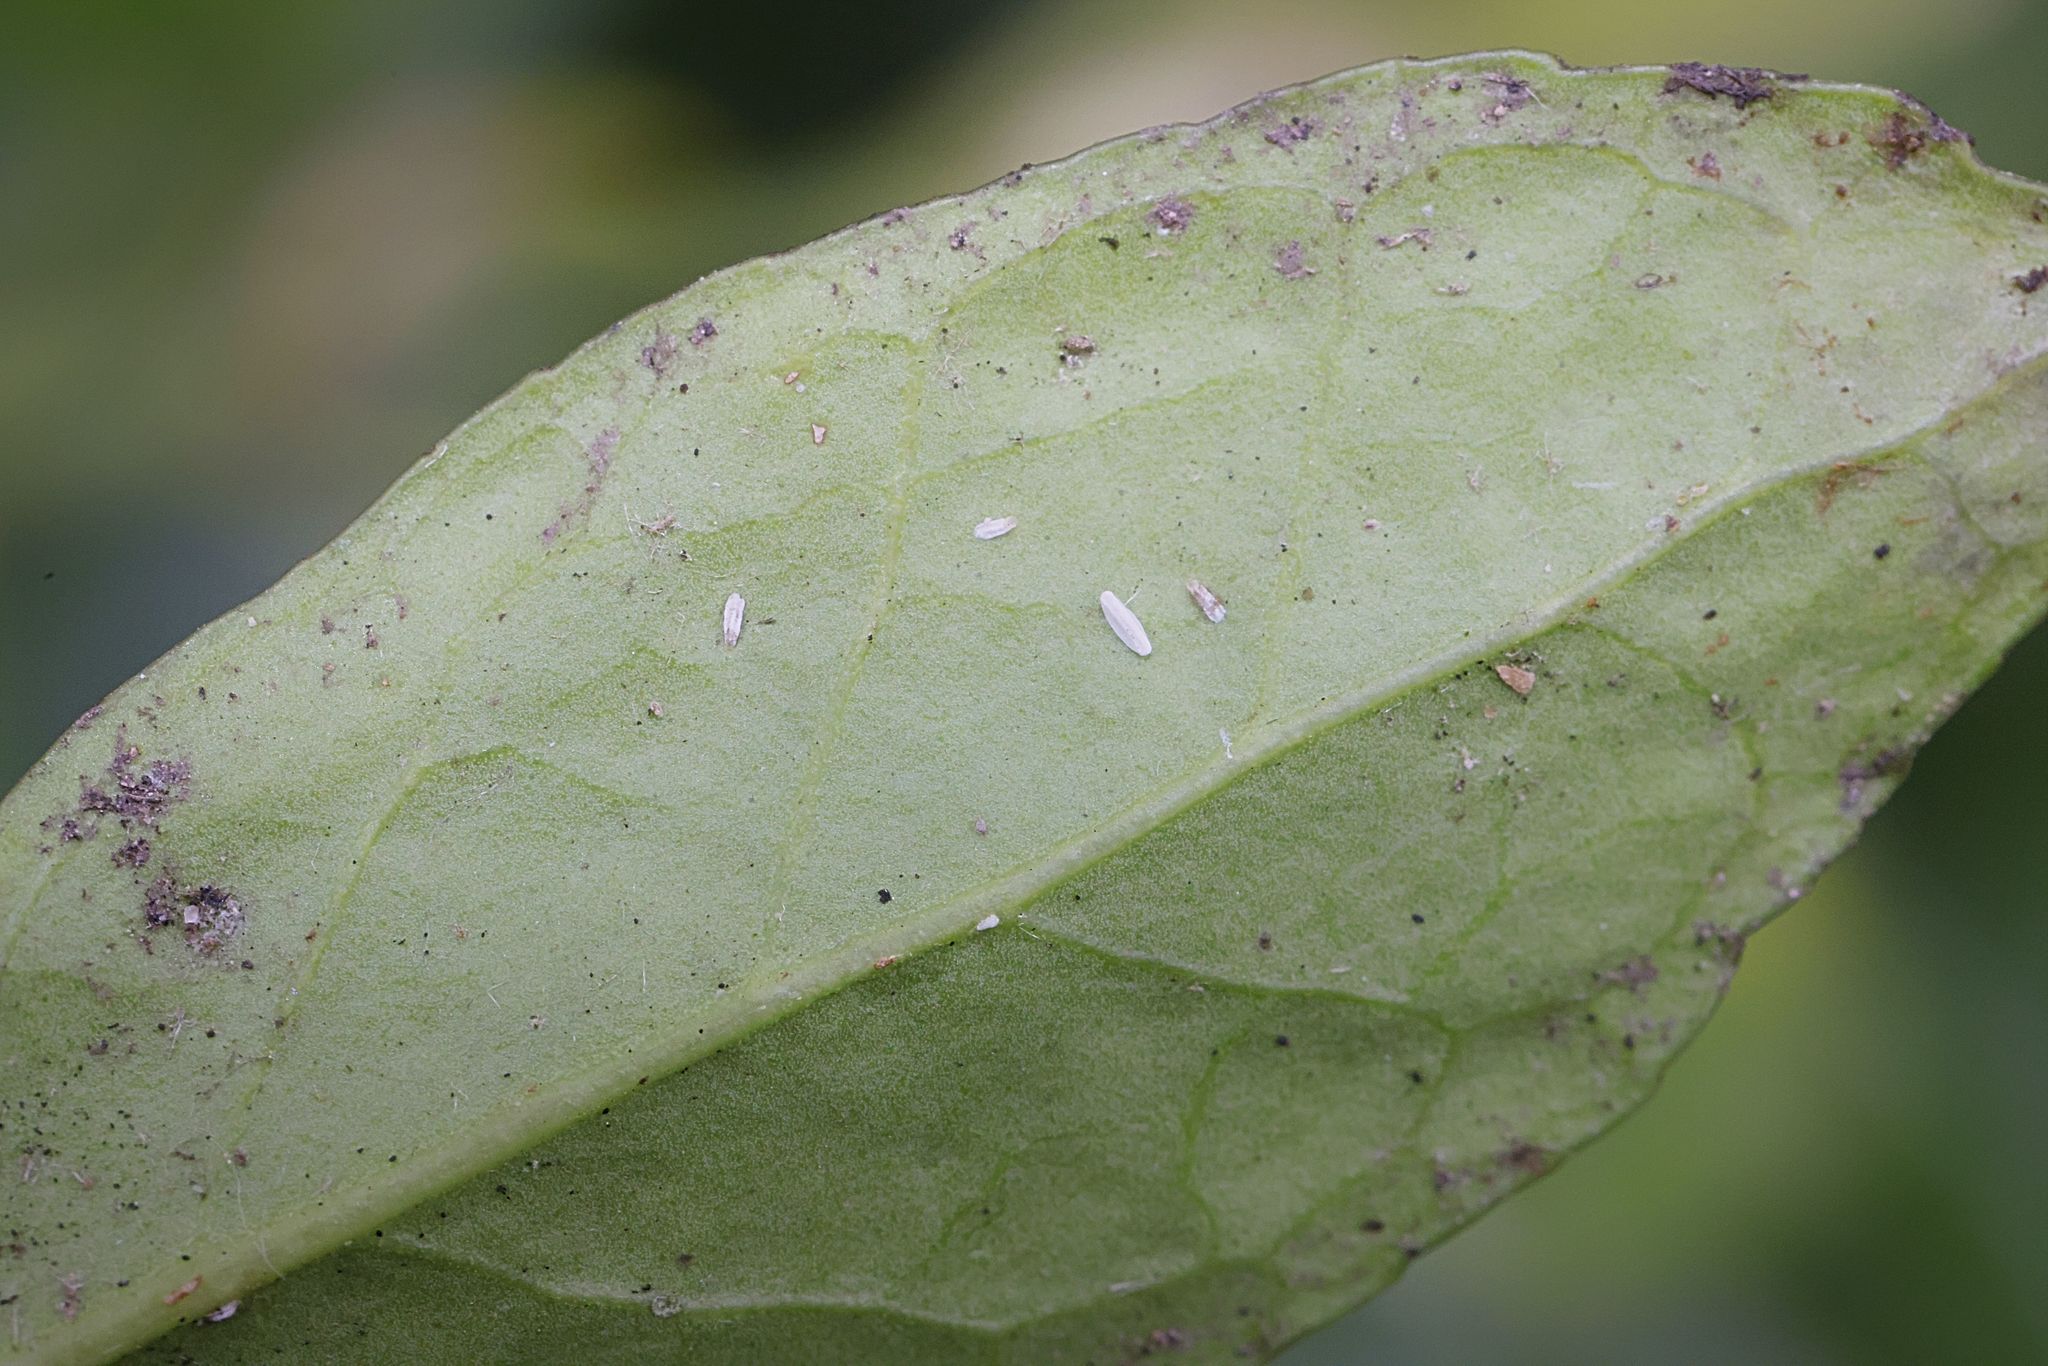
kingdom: Animalia
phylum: Arthropoda
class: Insecta
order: Hemiptera
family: Diaspididae
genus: Unaspis
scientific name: Unaspis euonymi
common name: Euonymus scale
